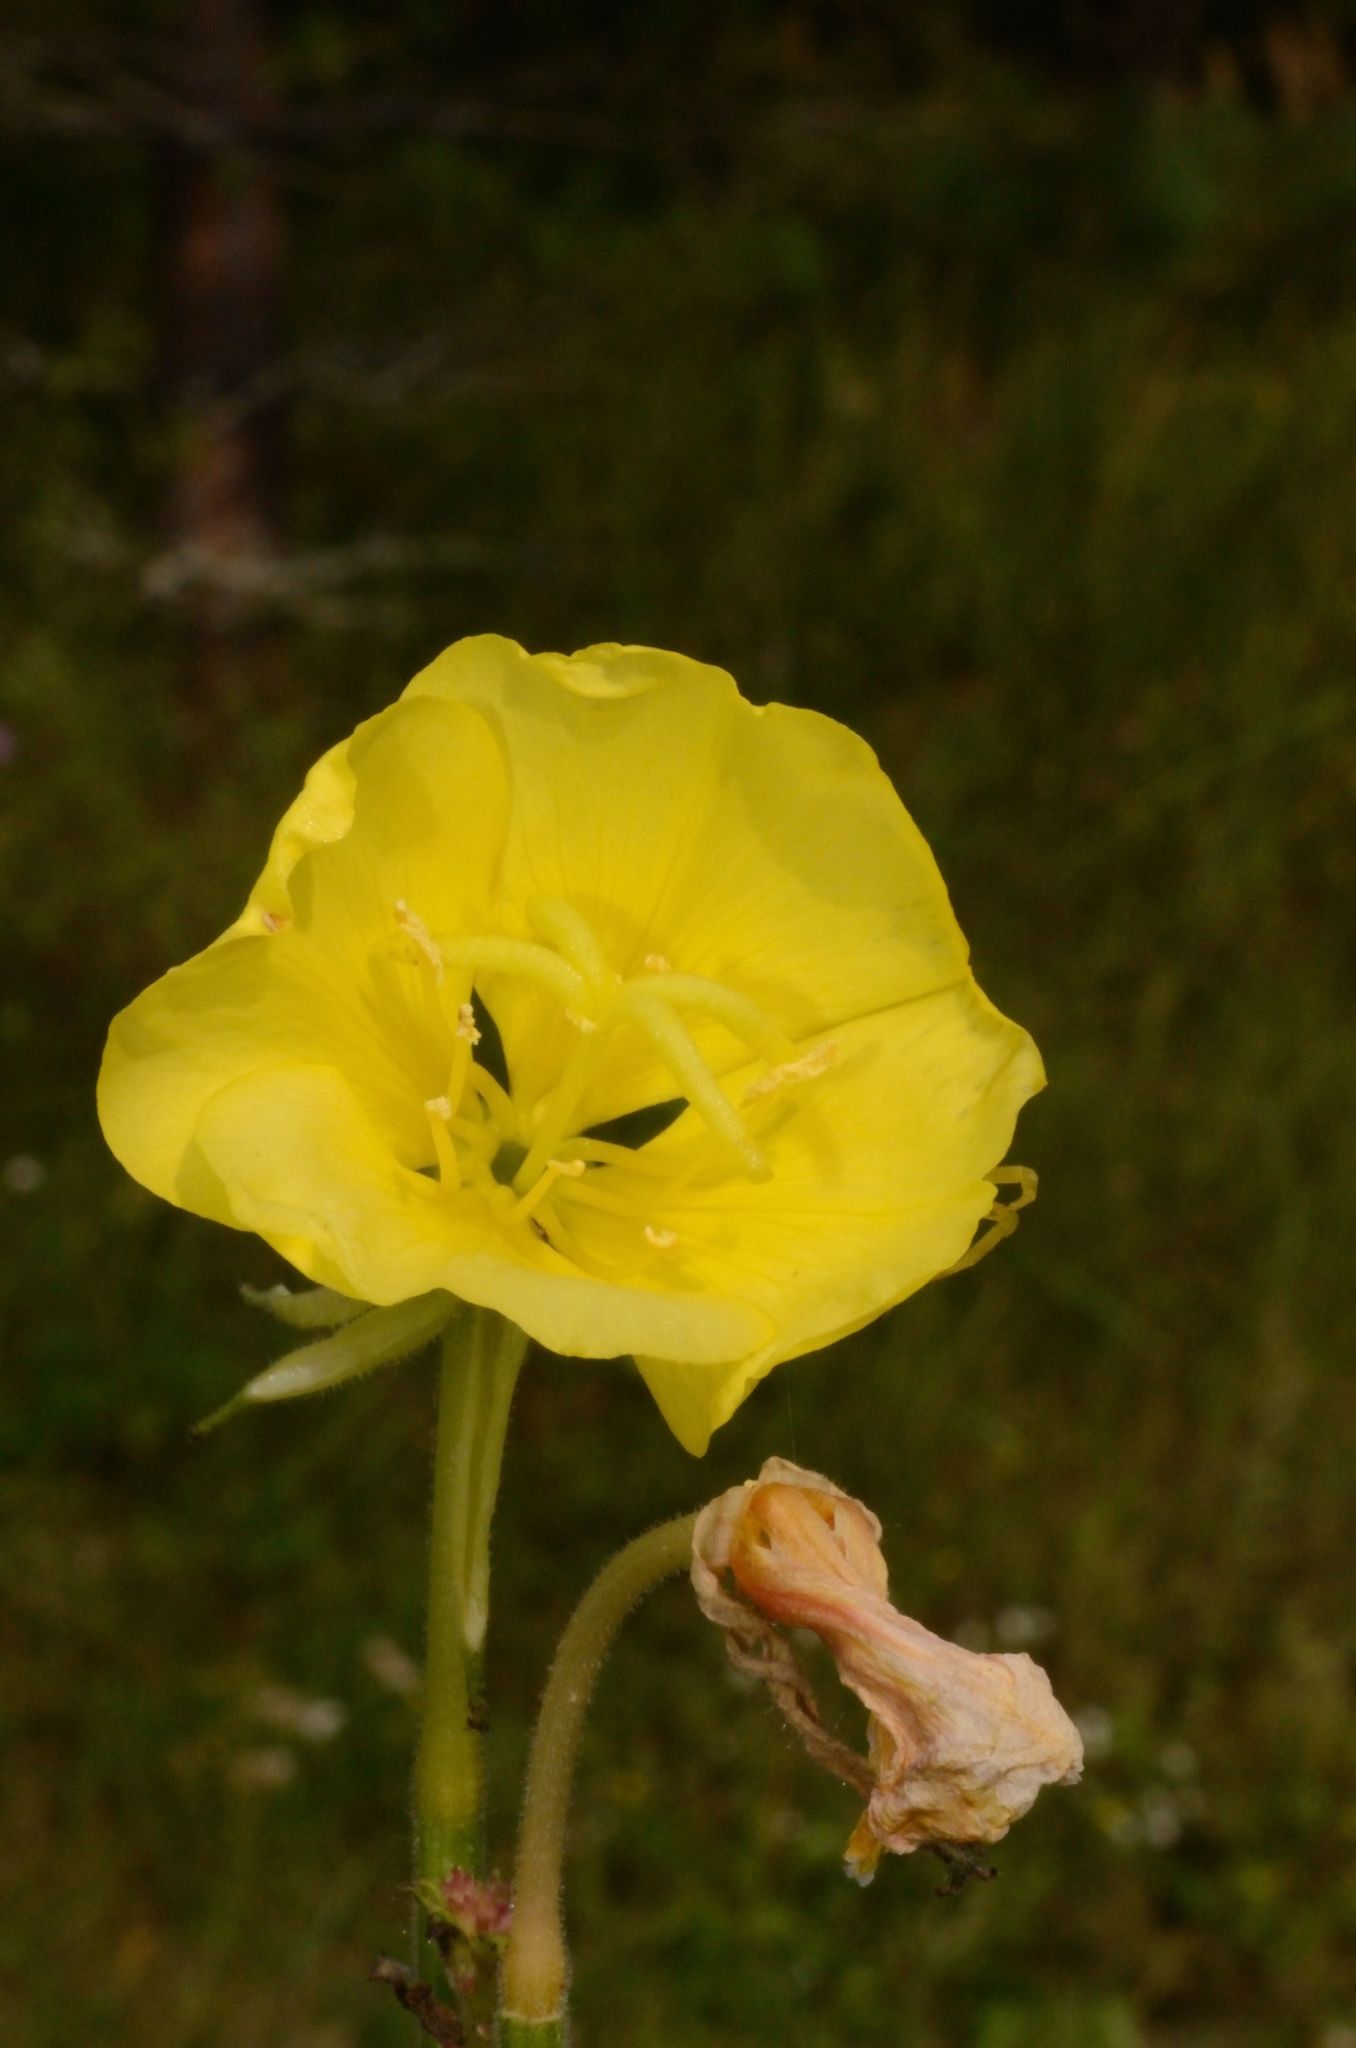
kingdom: Plantae
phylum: Tracheophyta
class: Magnoliopsida
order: Myrtales
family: Onagraceae
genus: Oenothera
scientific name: Oenothera biennis
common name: Common evening-primrose
